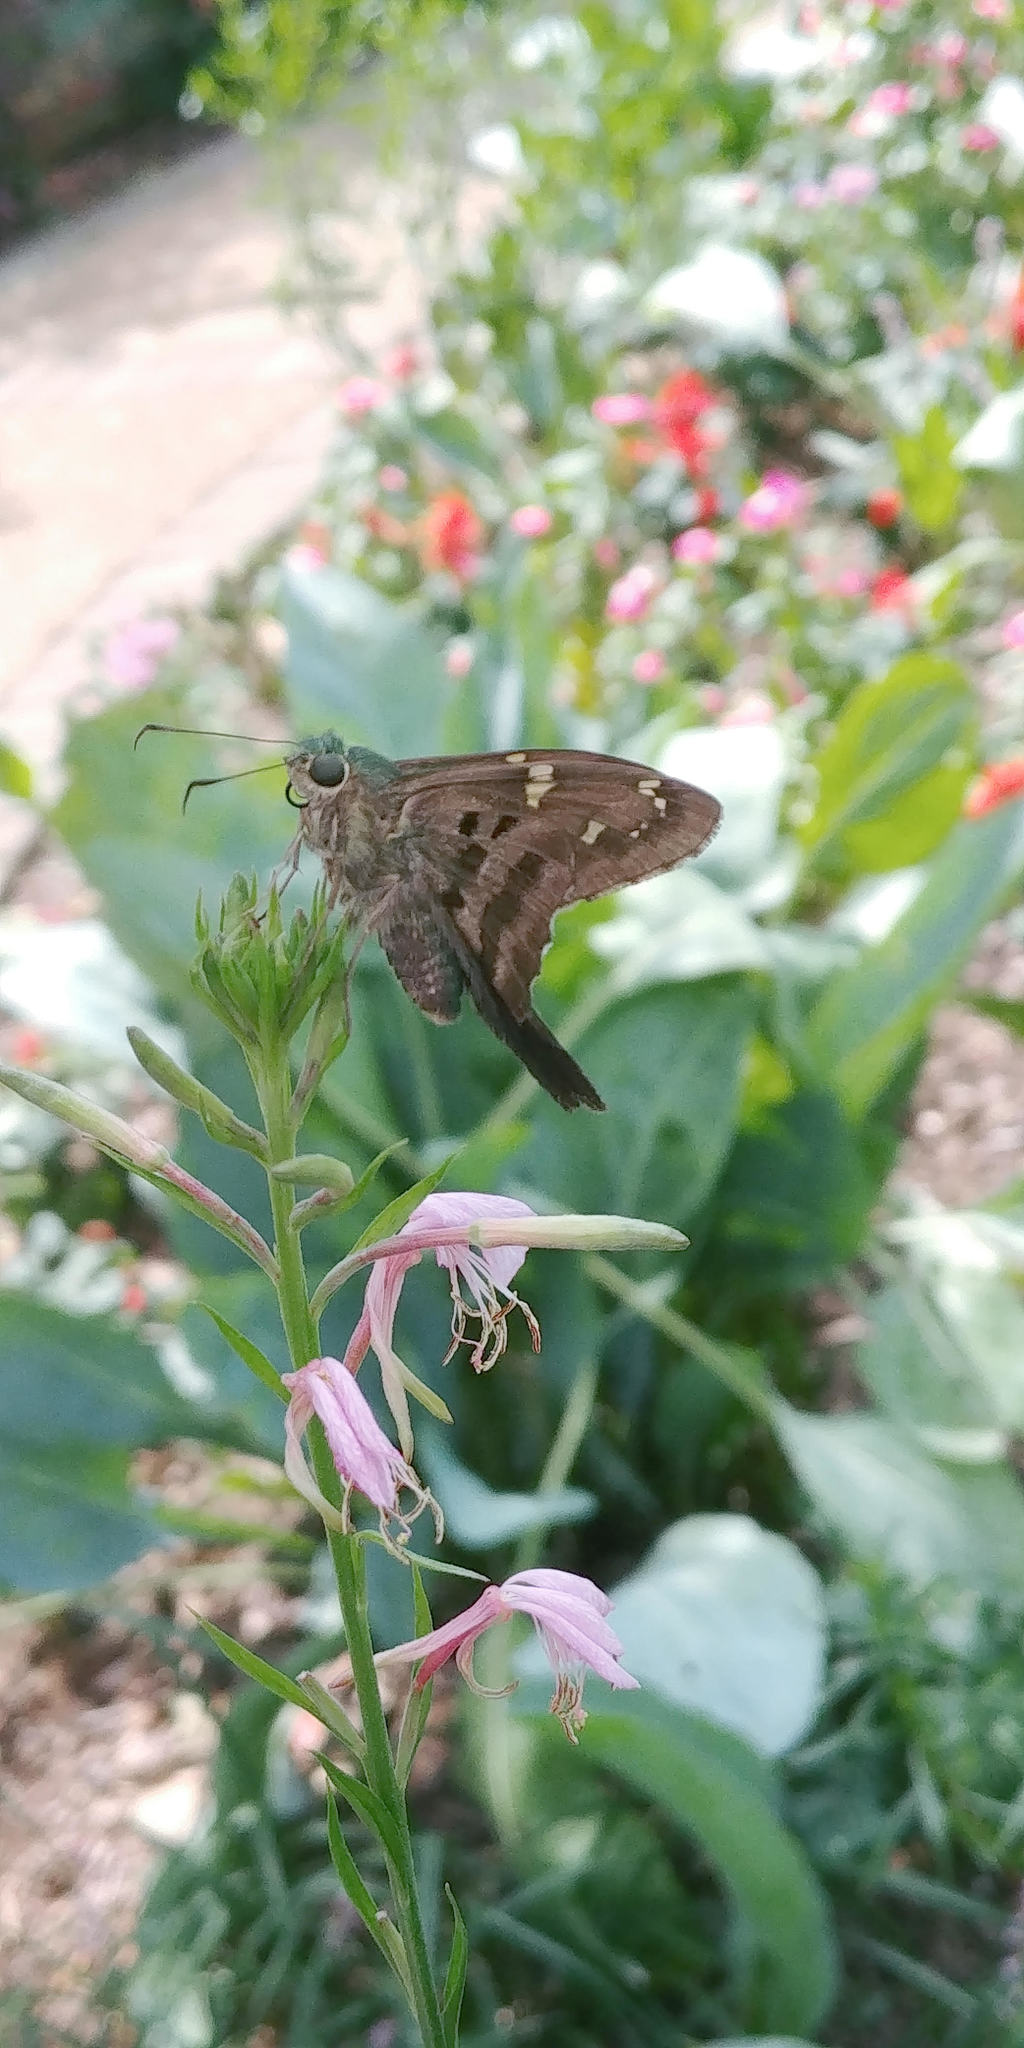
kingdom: Animalia
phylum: Arthropoda
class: Insecta
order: Lepidoptera
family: Hesperiidae
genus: Urbanus
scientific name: Urbanus proteus
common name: Long-tailed skipper
